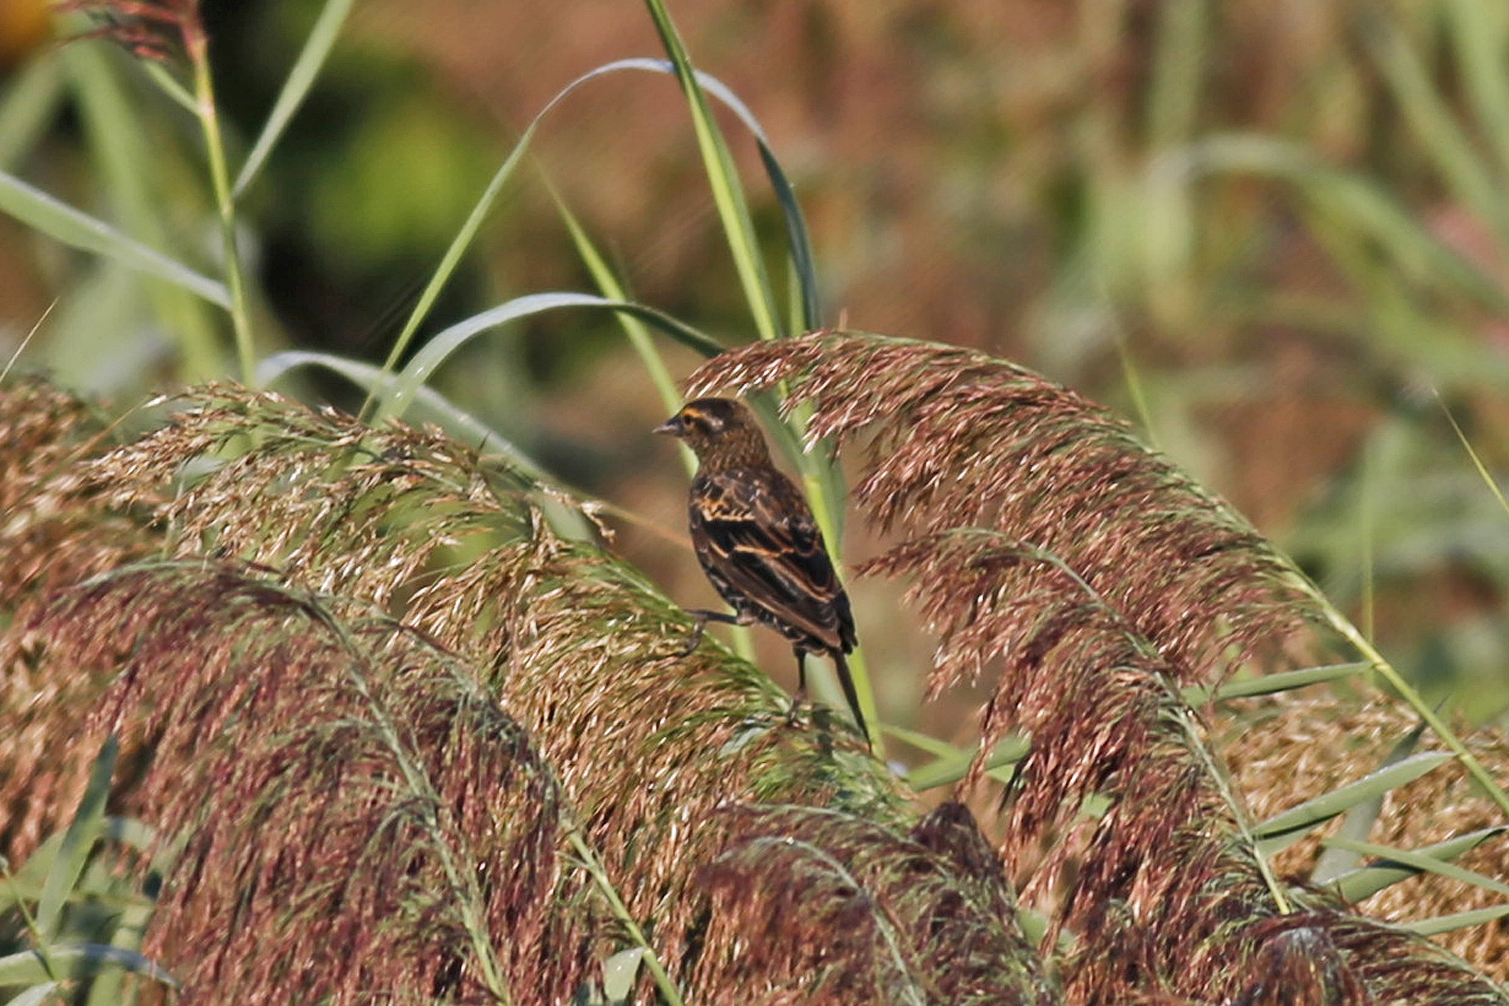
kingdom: Animalia
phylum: Chordata
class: Aves
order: Passeriformes
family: Icteridae
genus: Agelaius
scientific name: Agelaius phoeniceus
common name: Red-winged blackbird
